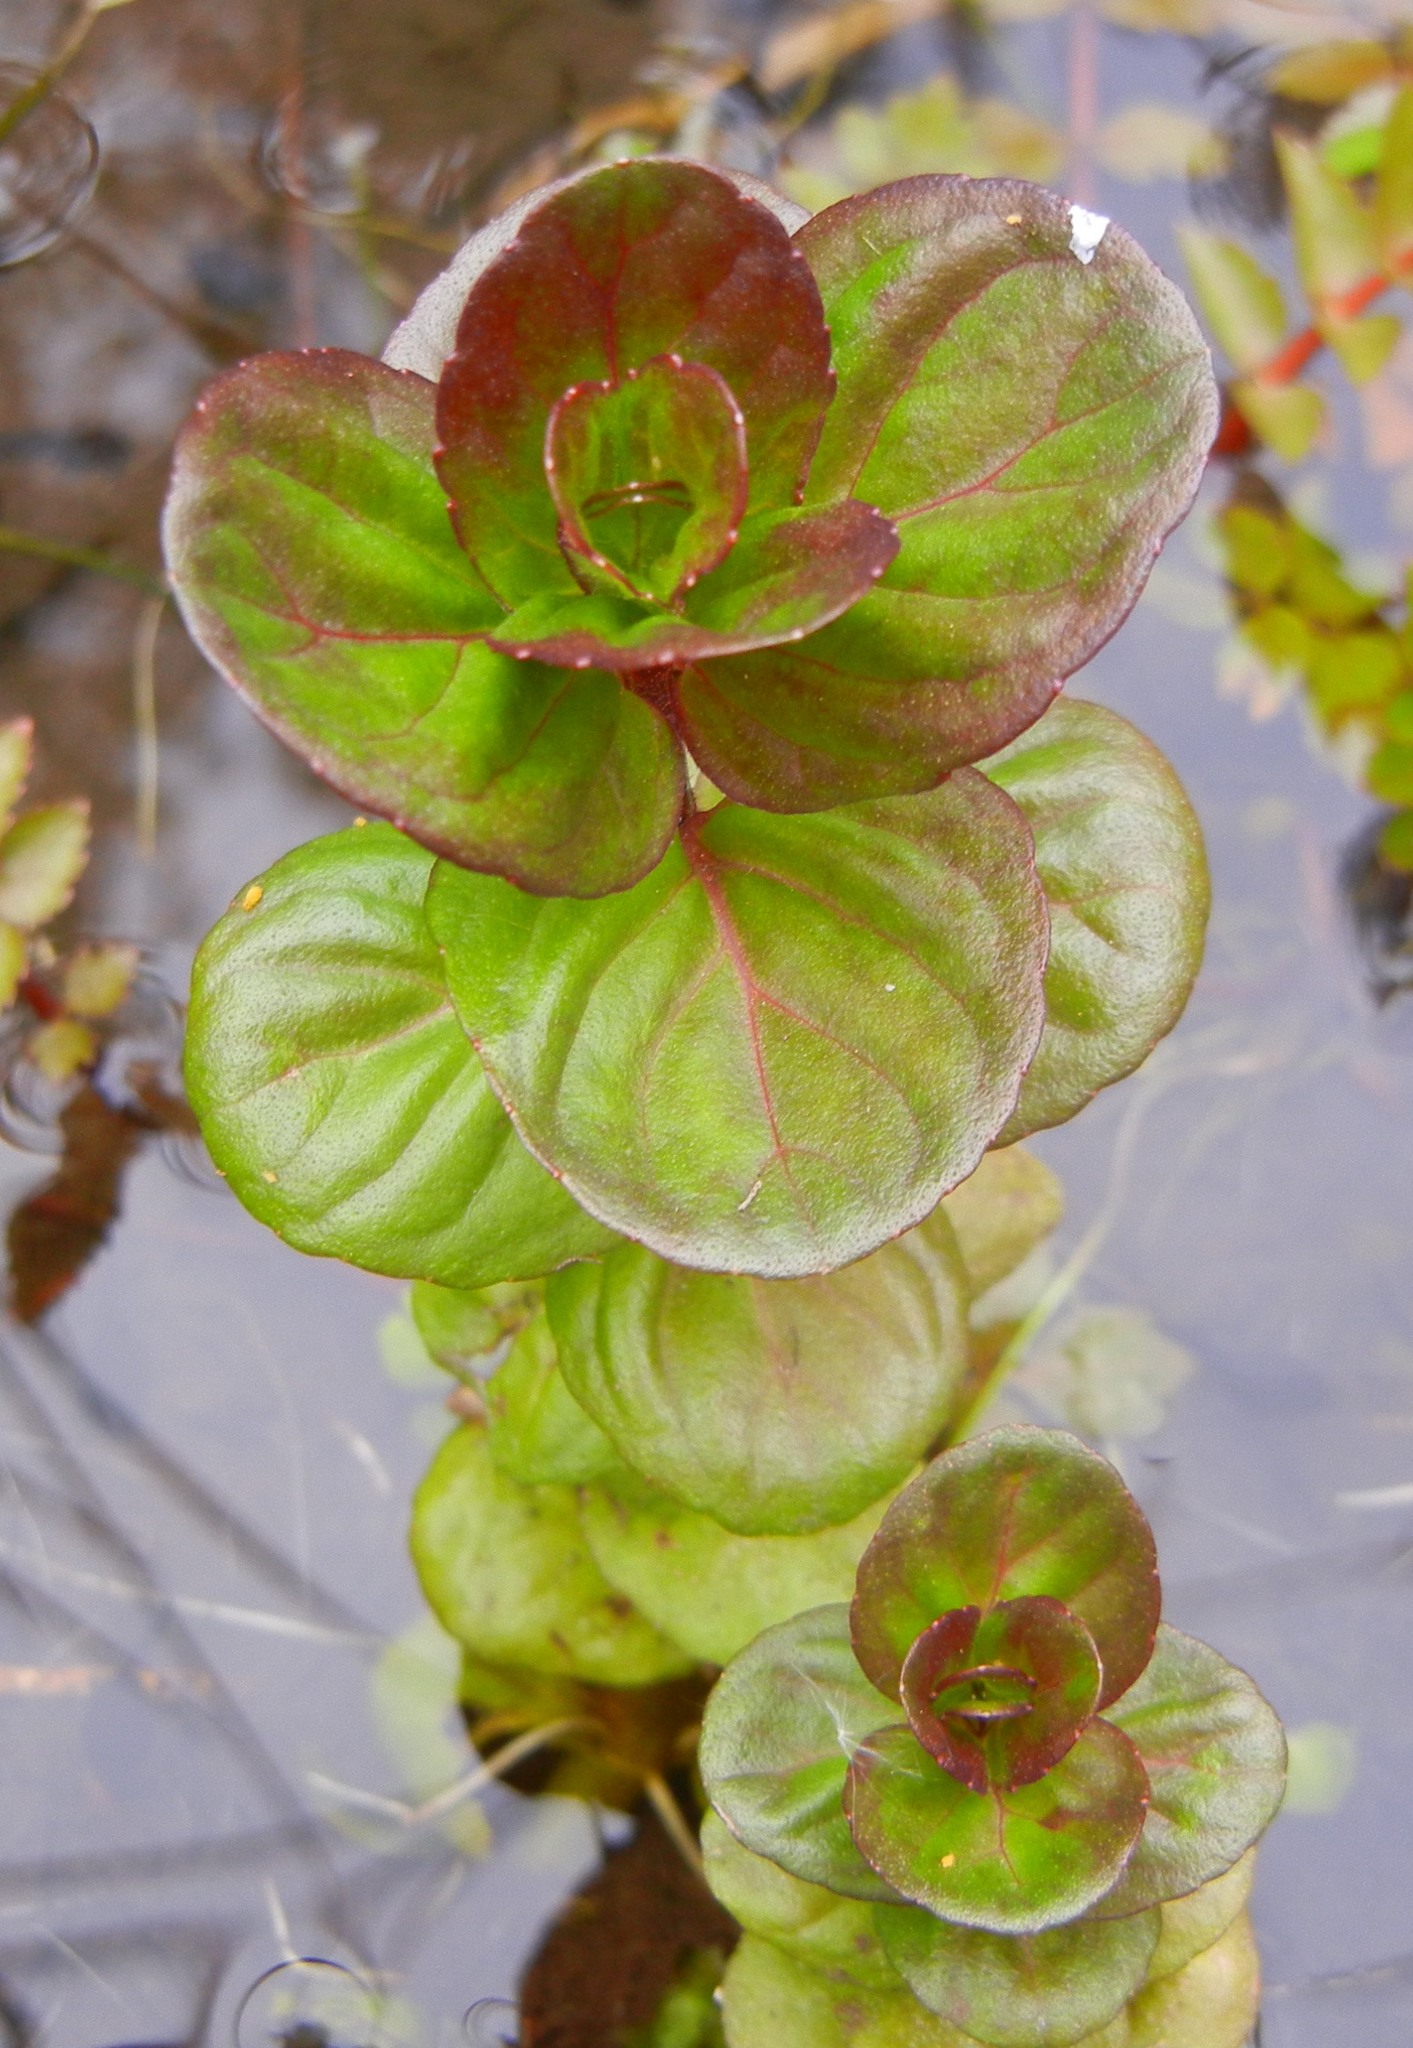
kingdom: Plantae
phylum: Tracheophyta
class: Magnoliopsida
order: Lamiales
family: Lamiaceae
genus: Mentha
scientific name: Mentha aquatica
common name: Water mint
